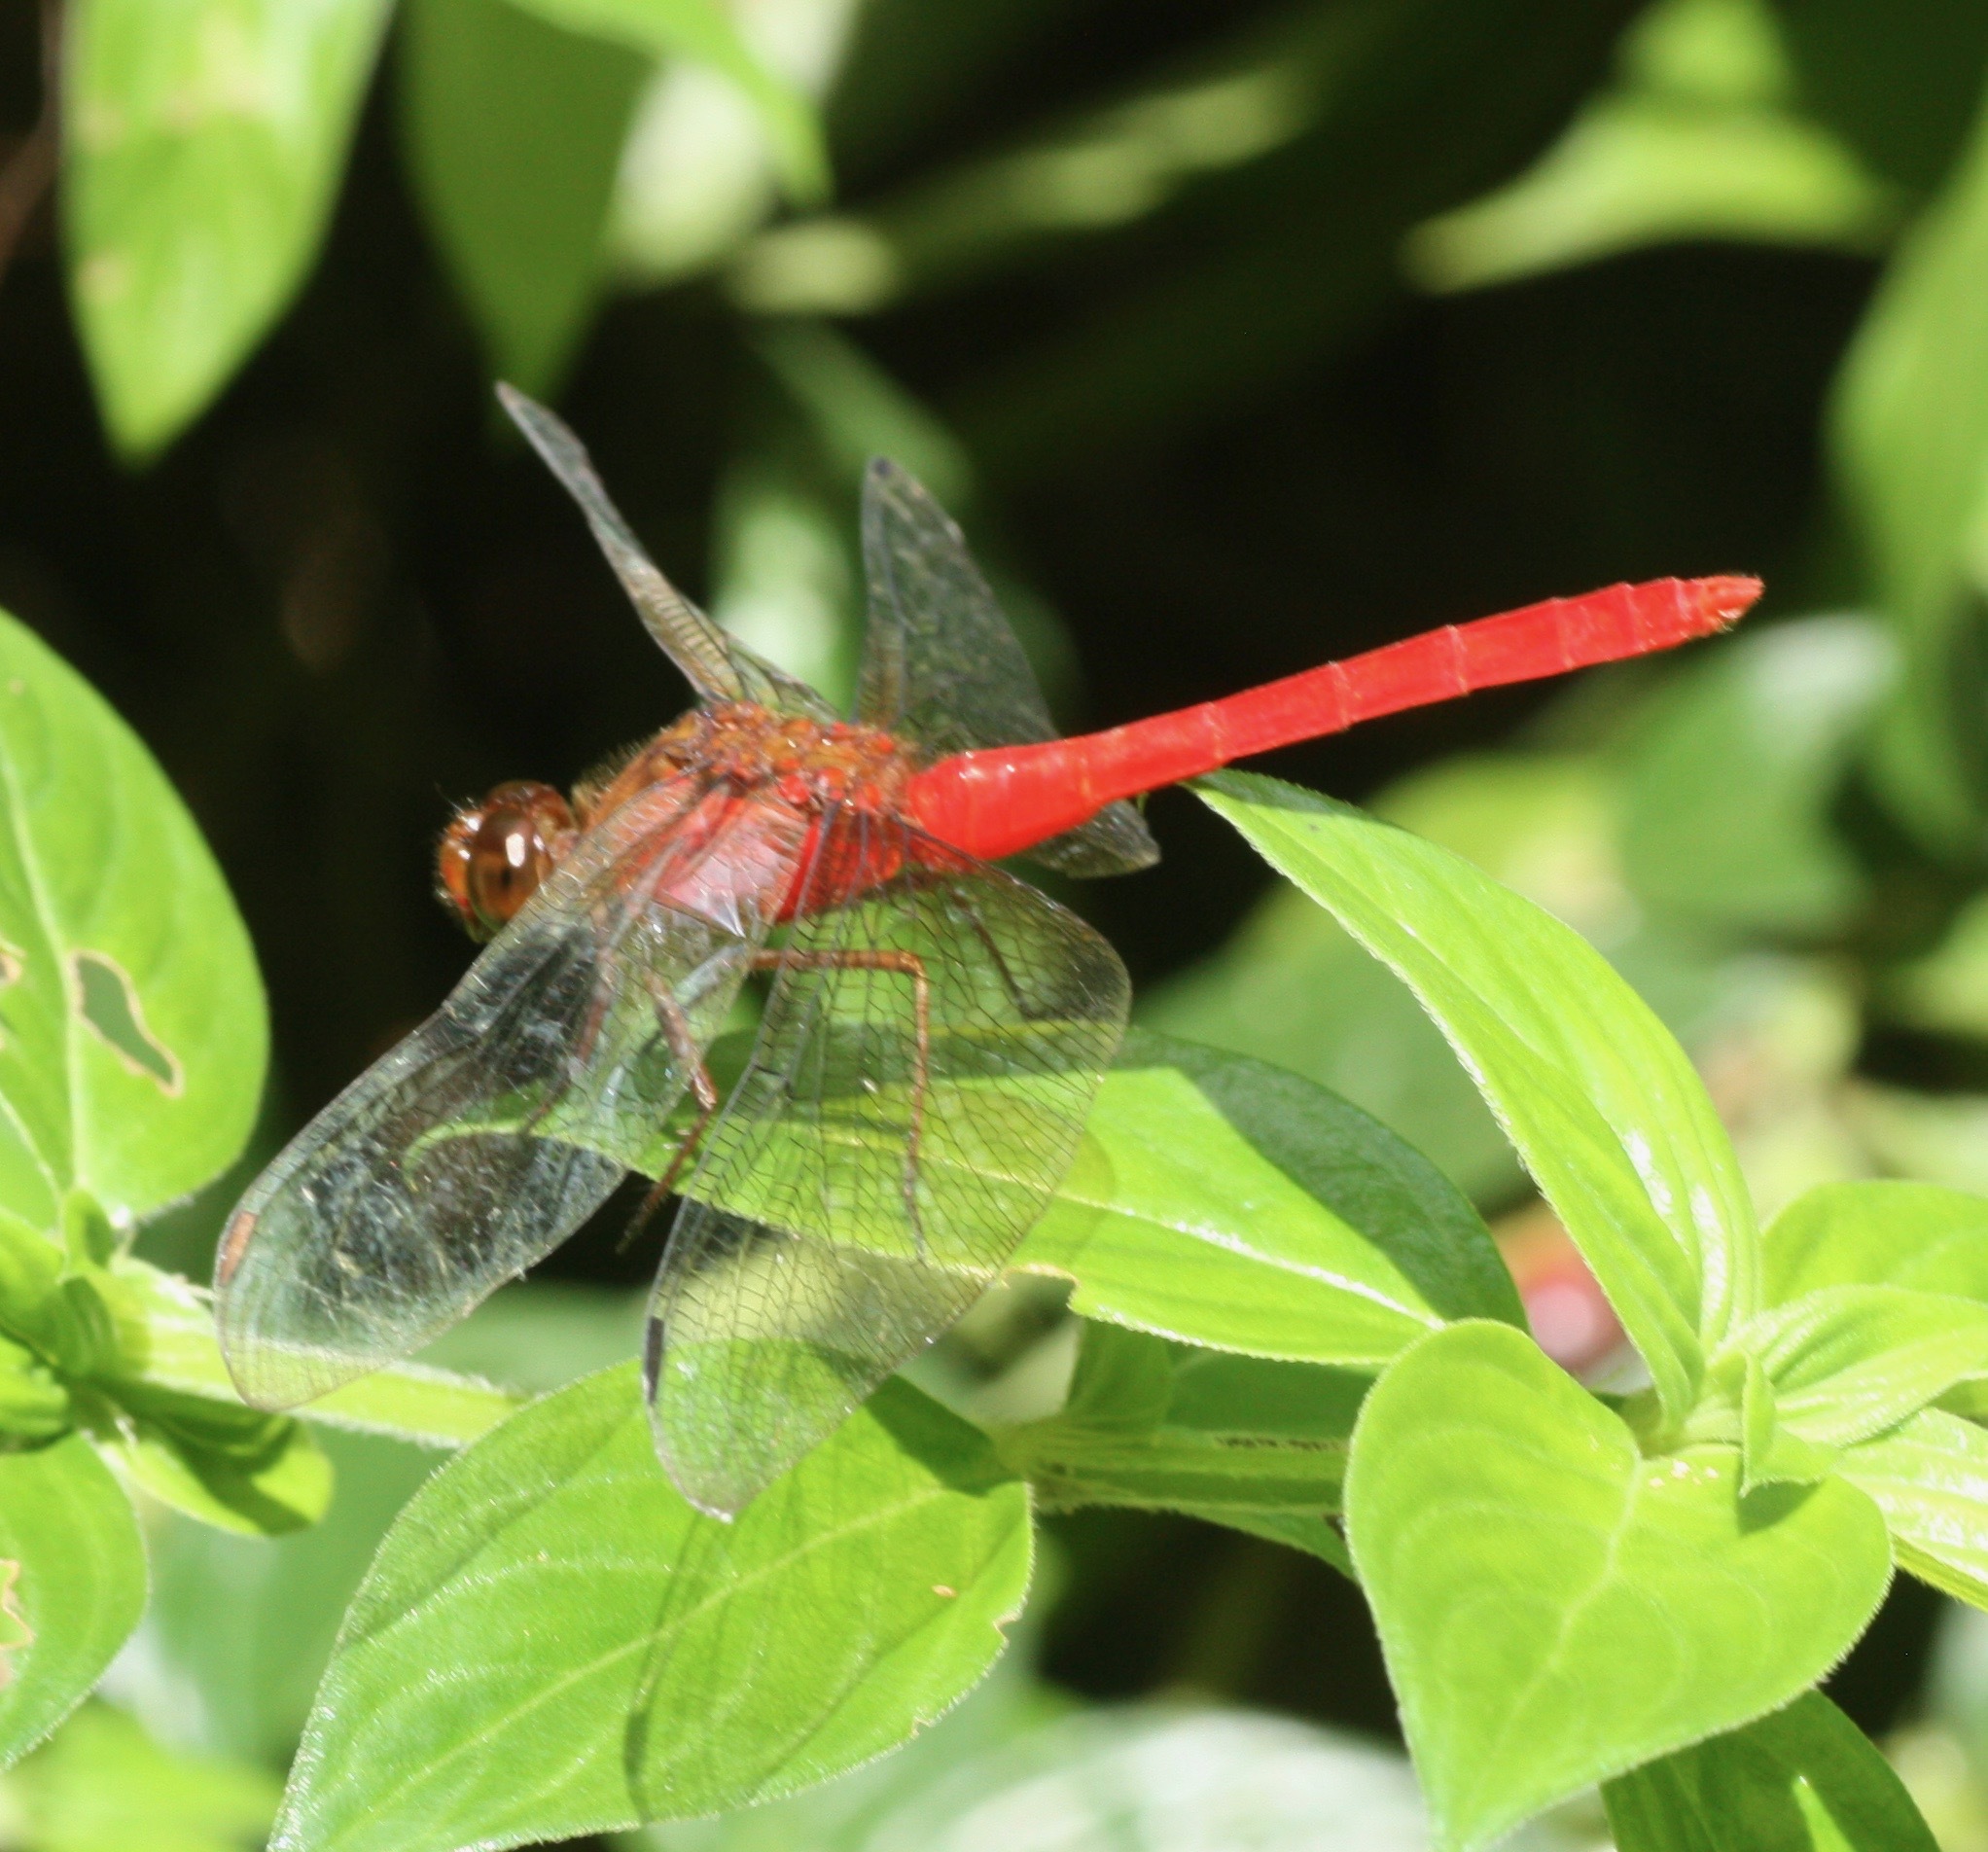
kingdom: Animalia
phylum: Arthropoda
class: Insecta
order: Odonata
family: Libellulidae
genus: Rhodopygia
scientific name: Rhodopygia hinei
